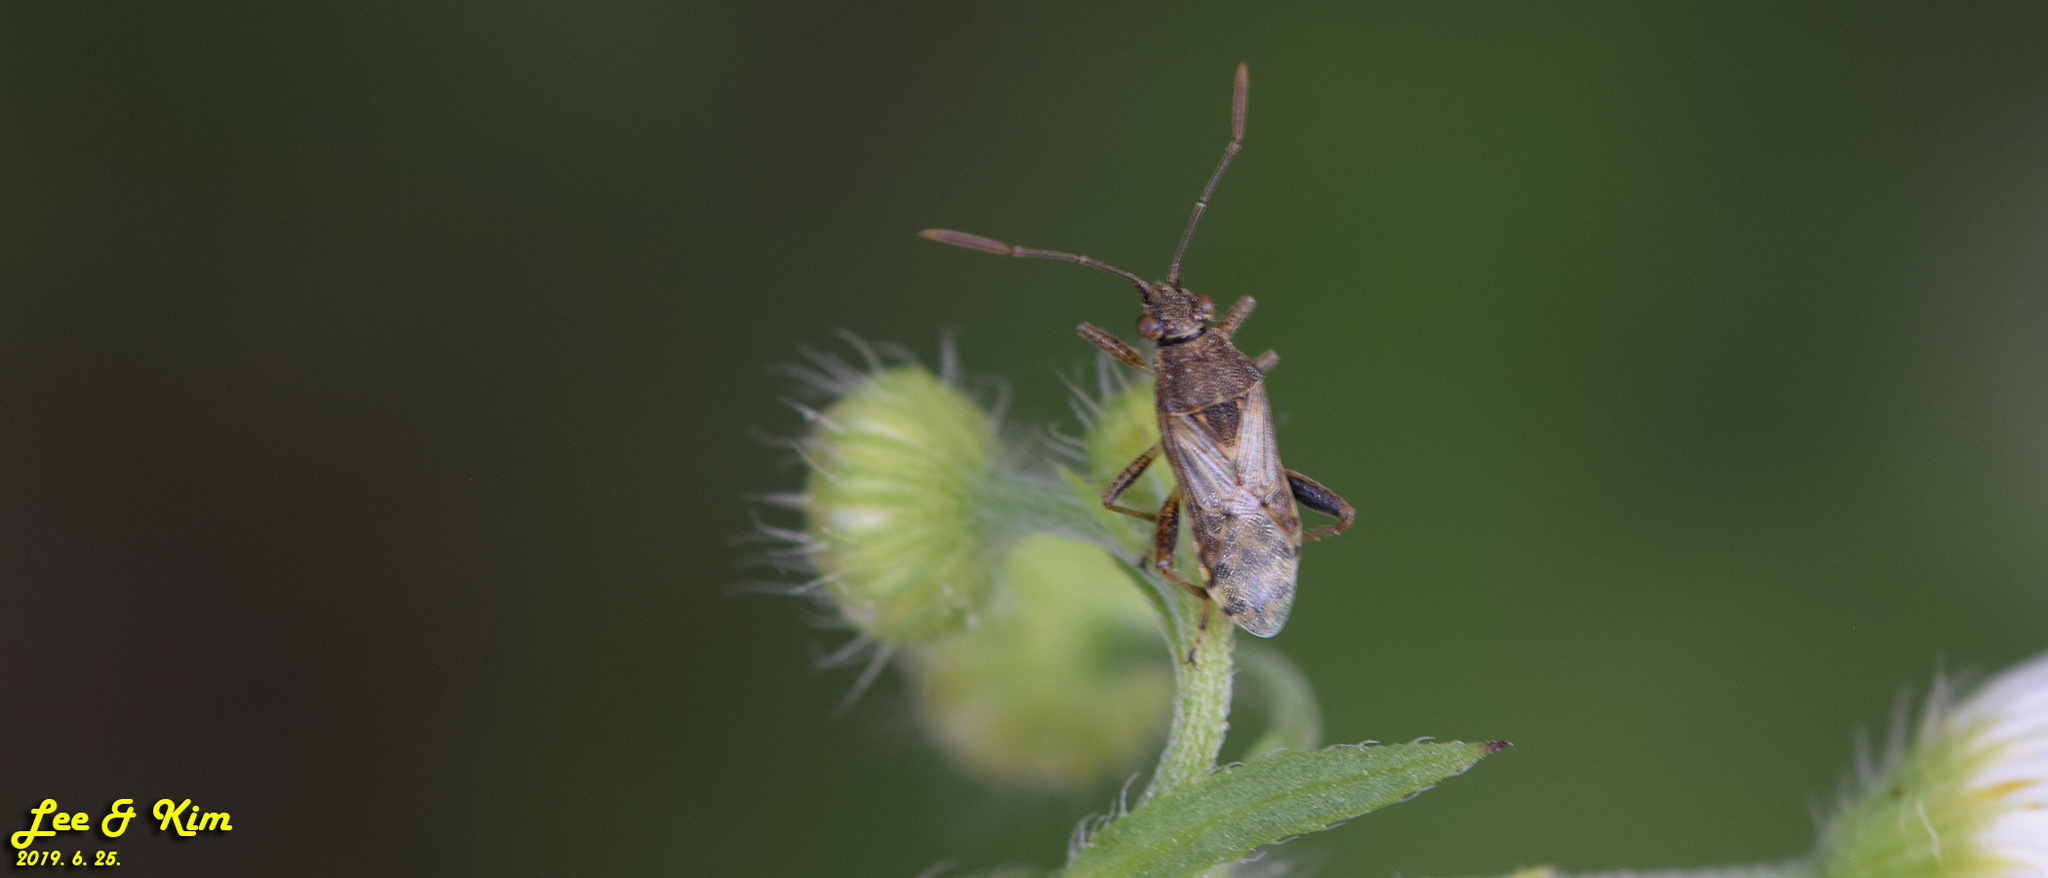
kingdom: Animalia
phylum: Arthropoda
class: Insecta
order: Hemiptera
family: Rhopalidae
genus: Stictopleurus
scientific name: Stictopleurus minutus
